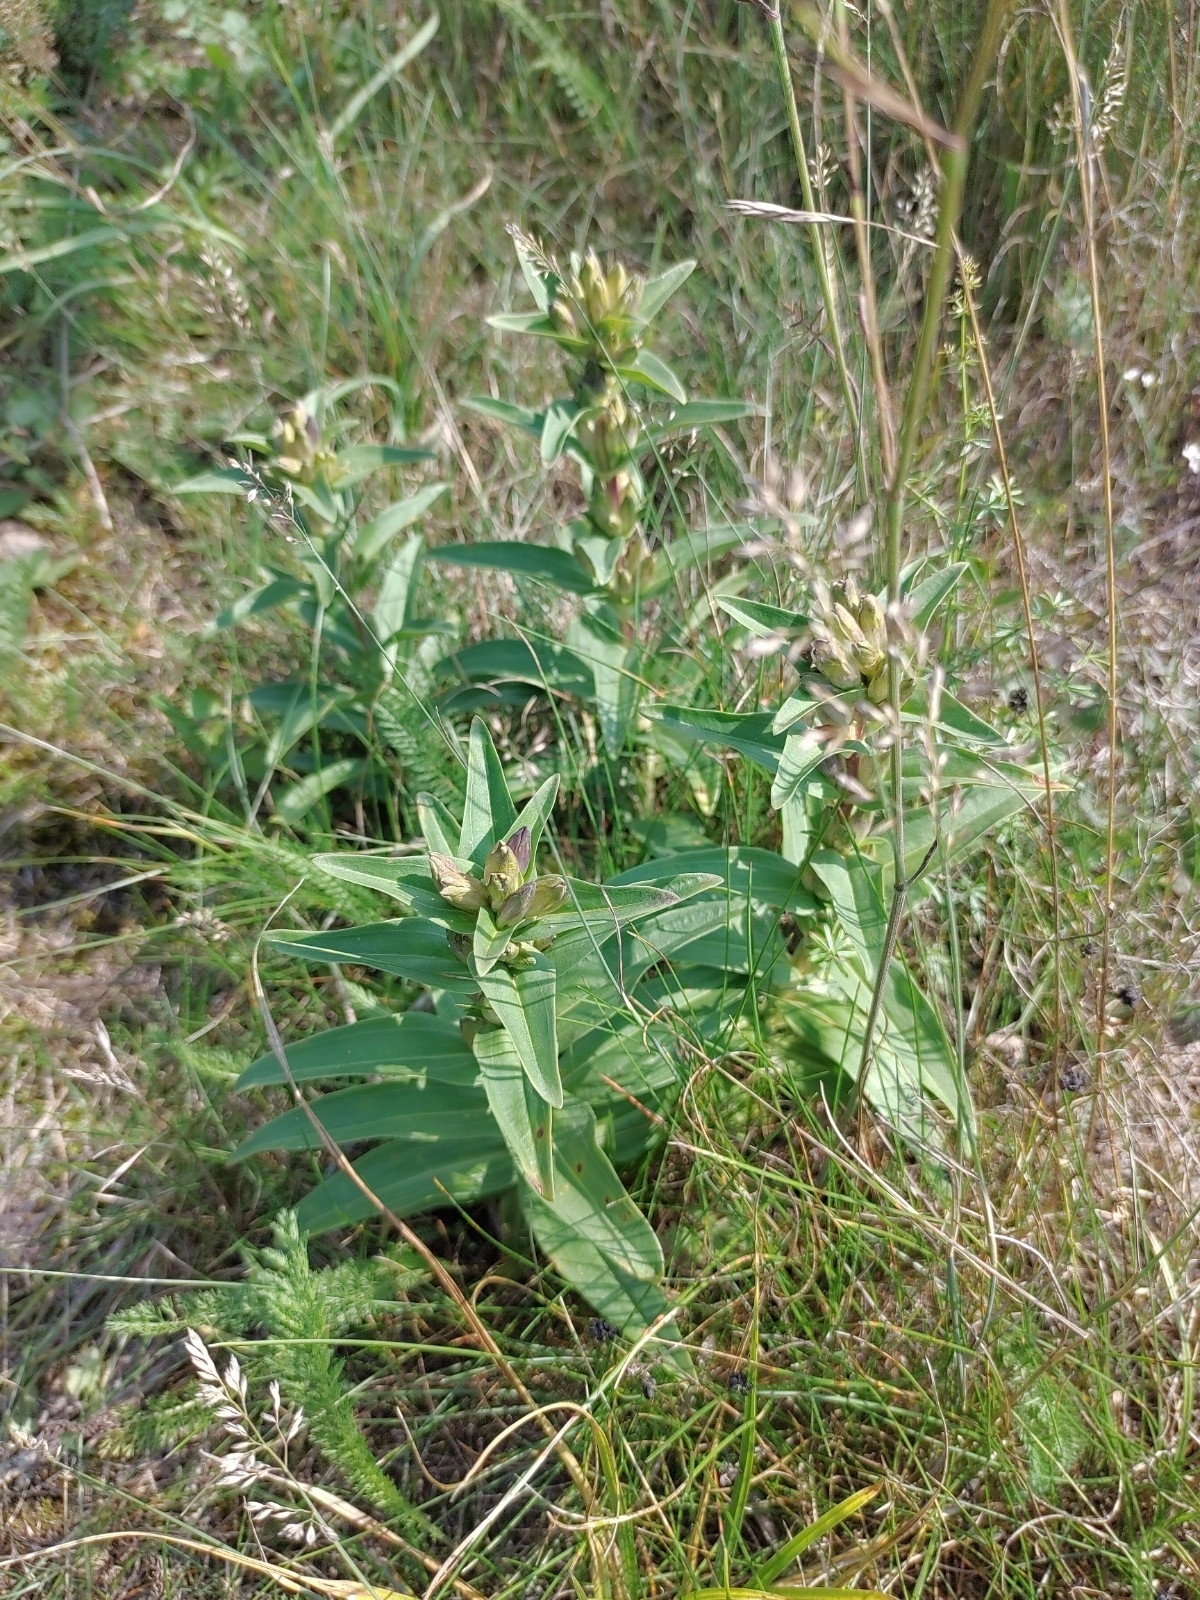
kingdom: Plantae
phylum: Tracheophyta
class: Magnoliopsida
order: Gentianales
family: Gentianaceae
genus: Gentiana
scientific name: Gentiana cruciata
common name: Cross gentian
